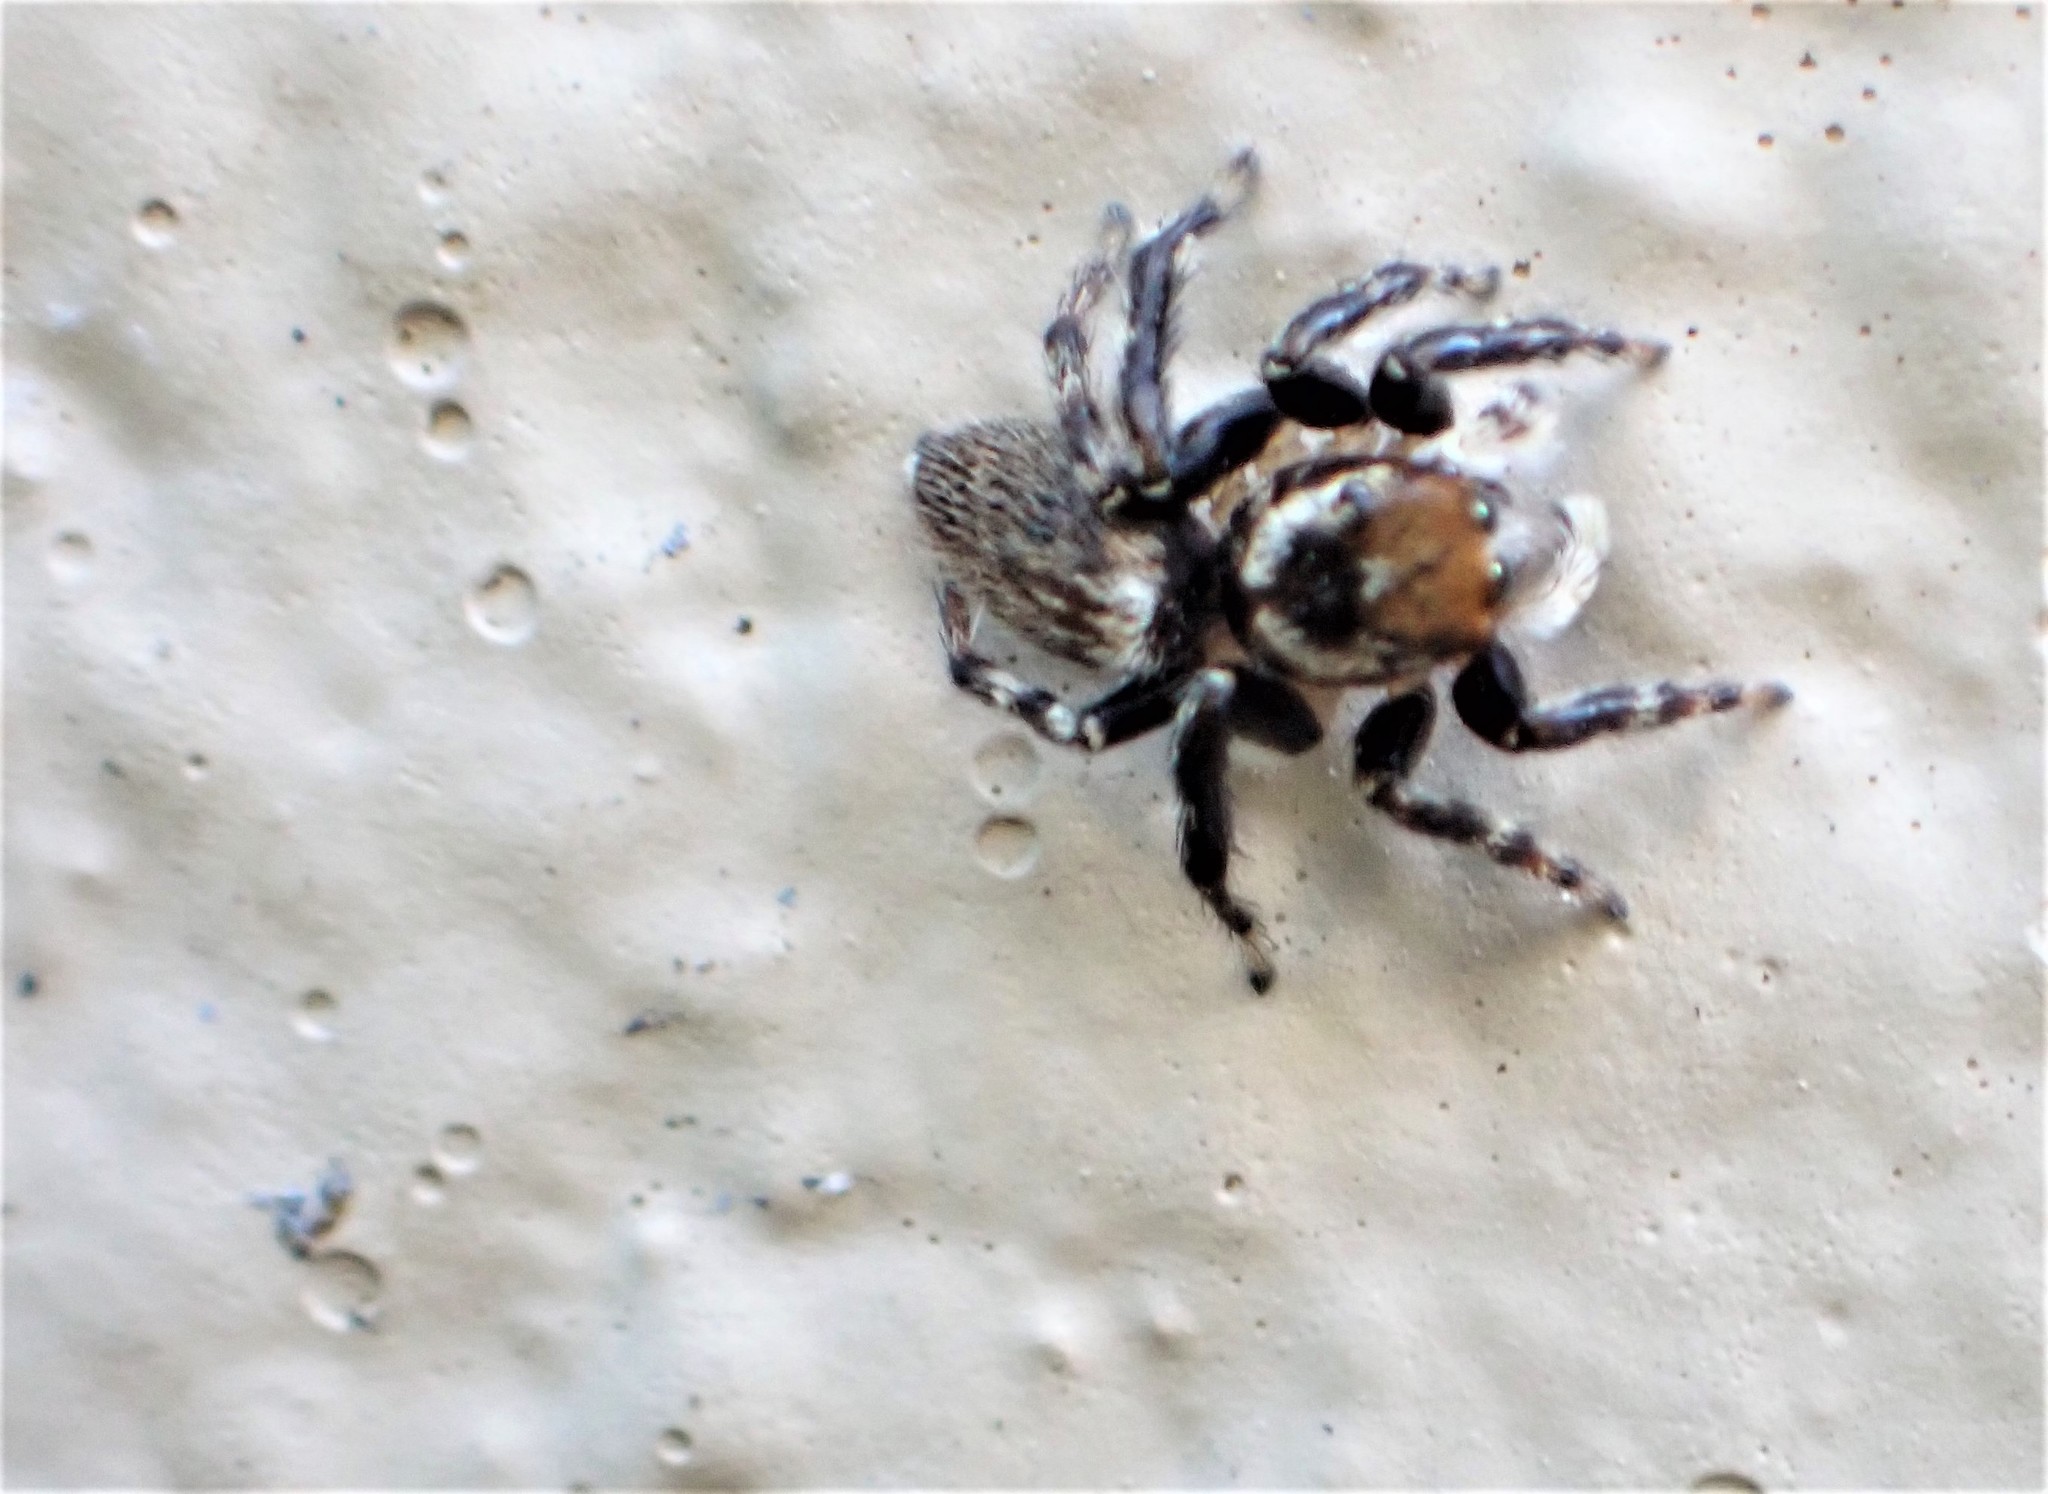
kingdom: Animalia
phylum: Arthropoda
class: Arachnida
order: Araneae
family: Salticidae
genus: Maratus
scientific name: Maratus griseus
